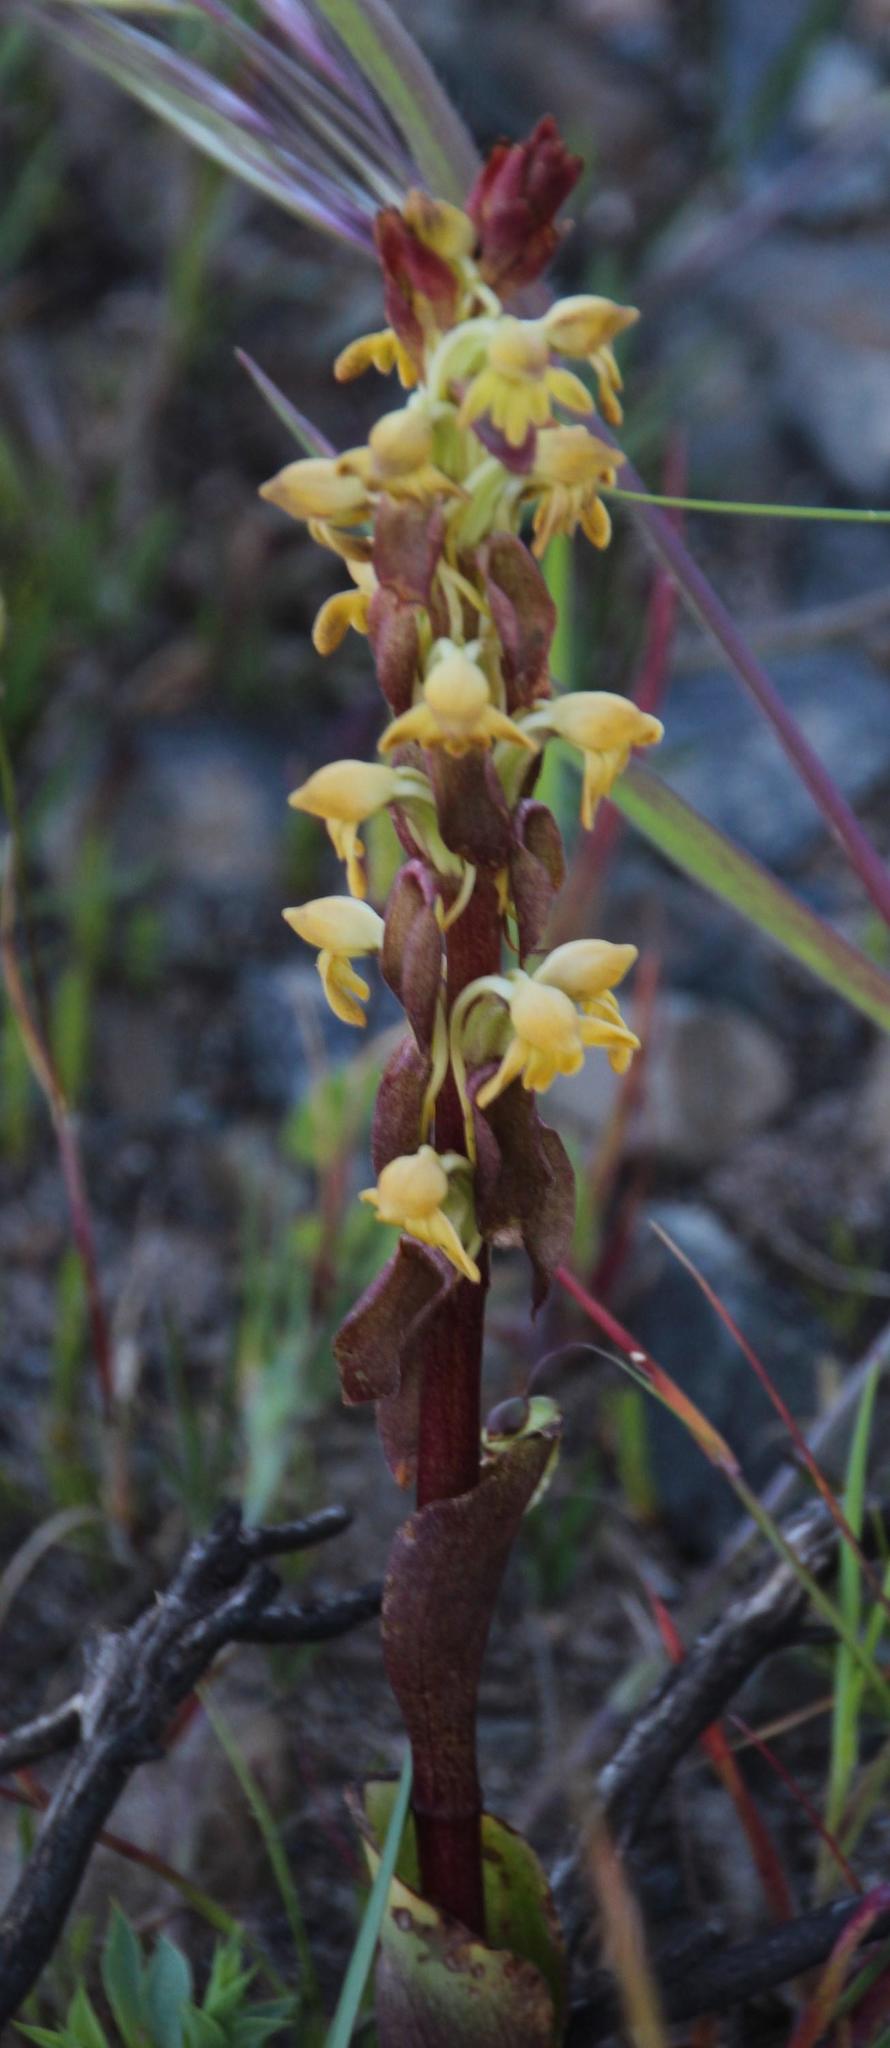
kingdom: Plantae
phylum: Tracheophyta
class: Liliopsida
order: Asparagales
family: Orchidaceae
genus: Satyrium
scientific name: Satyrium bicorne
